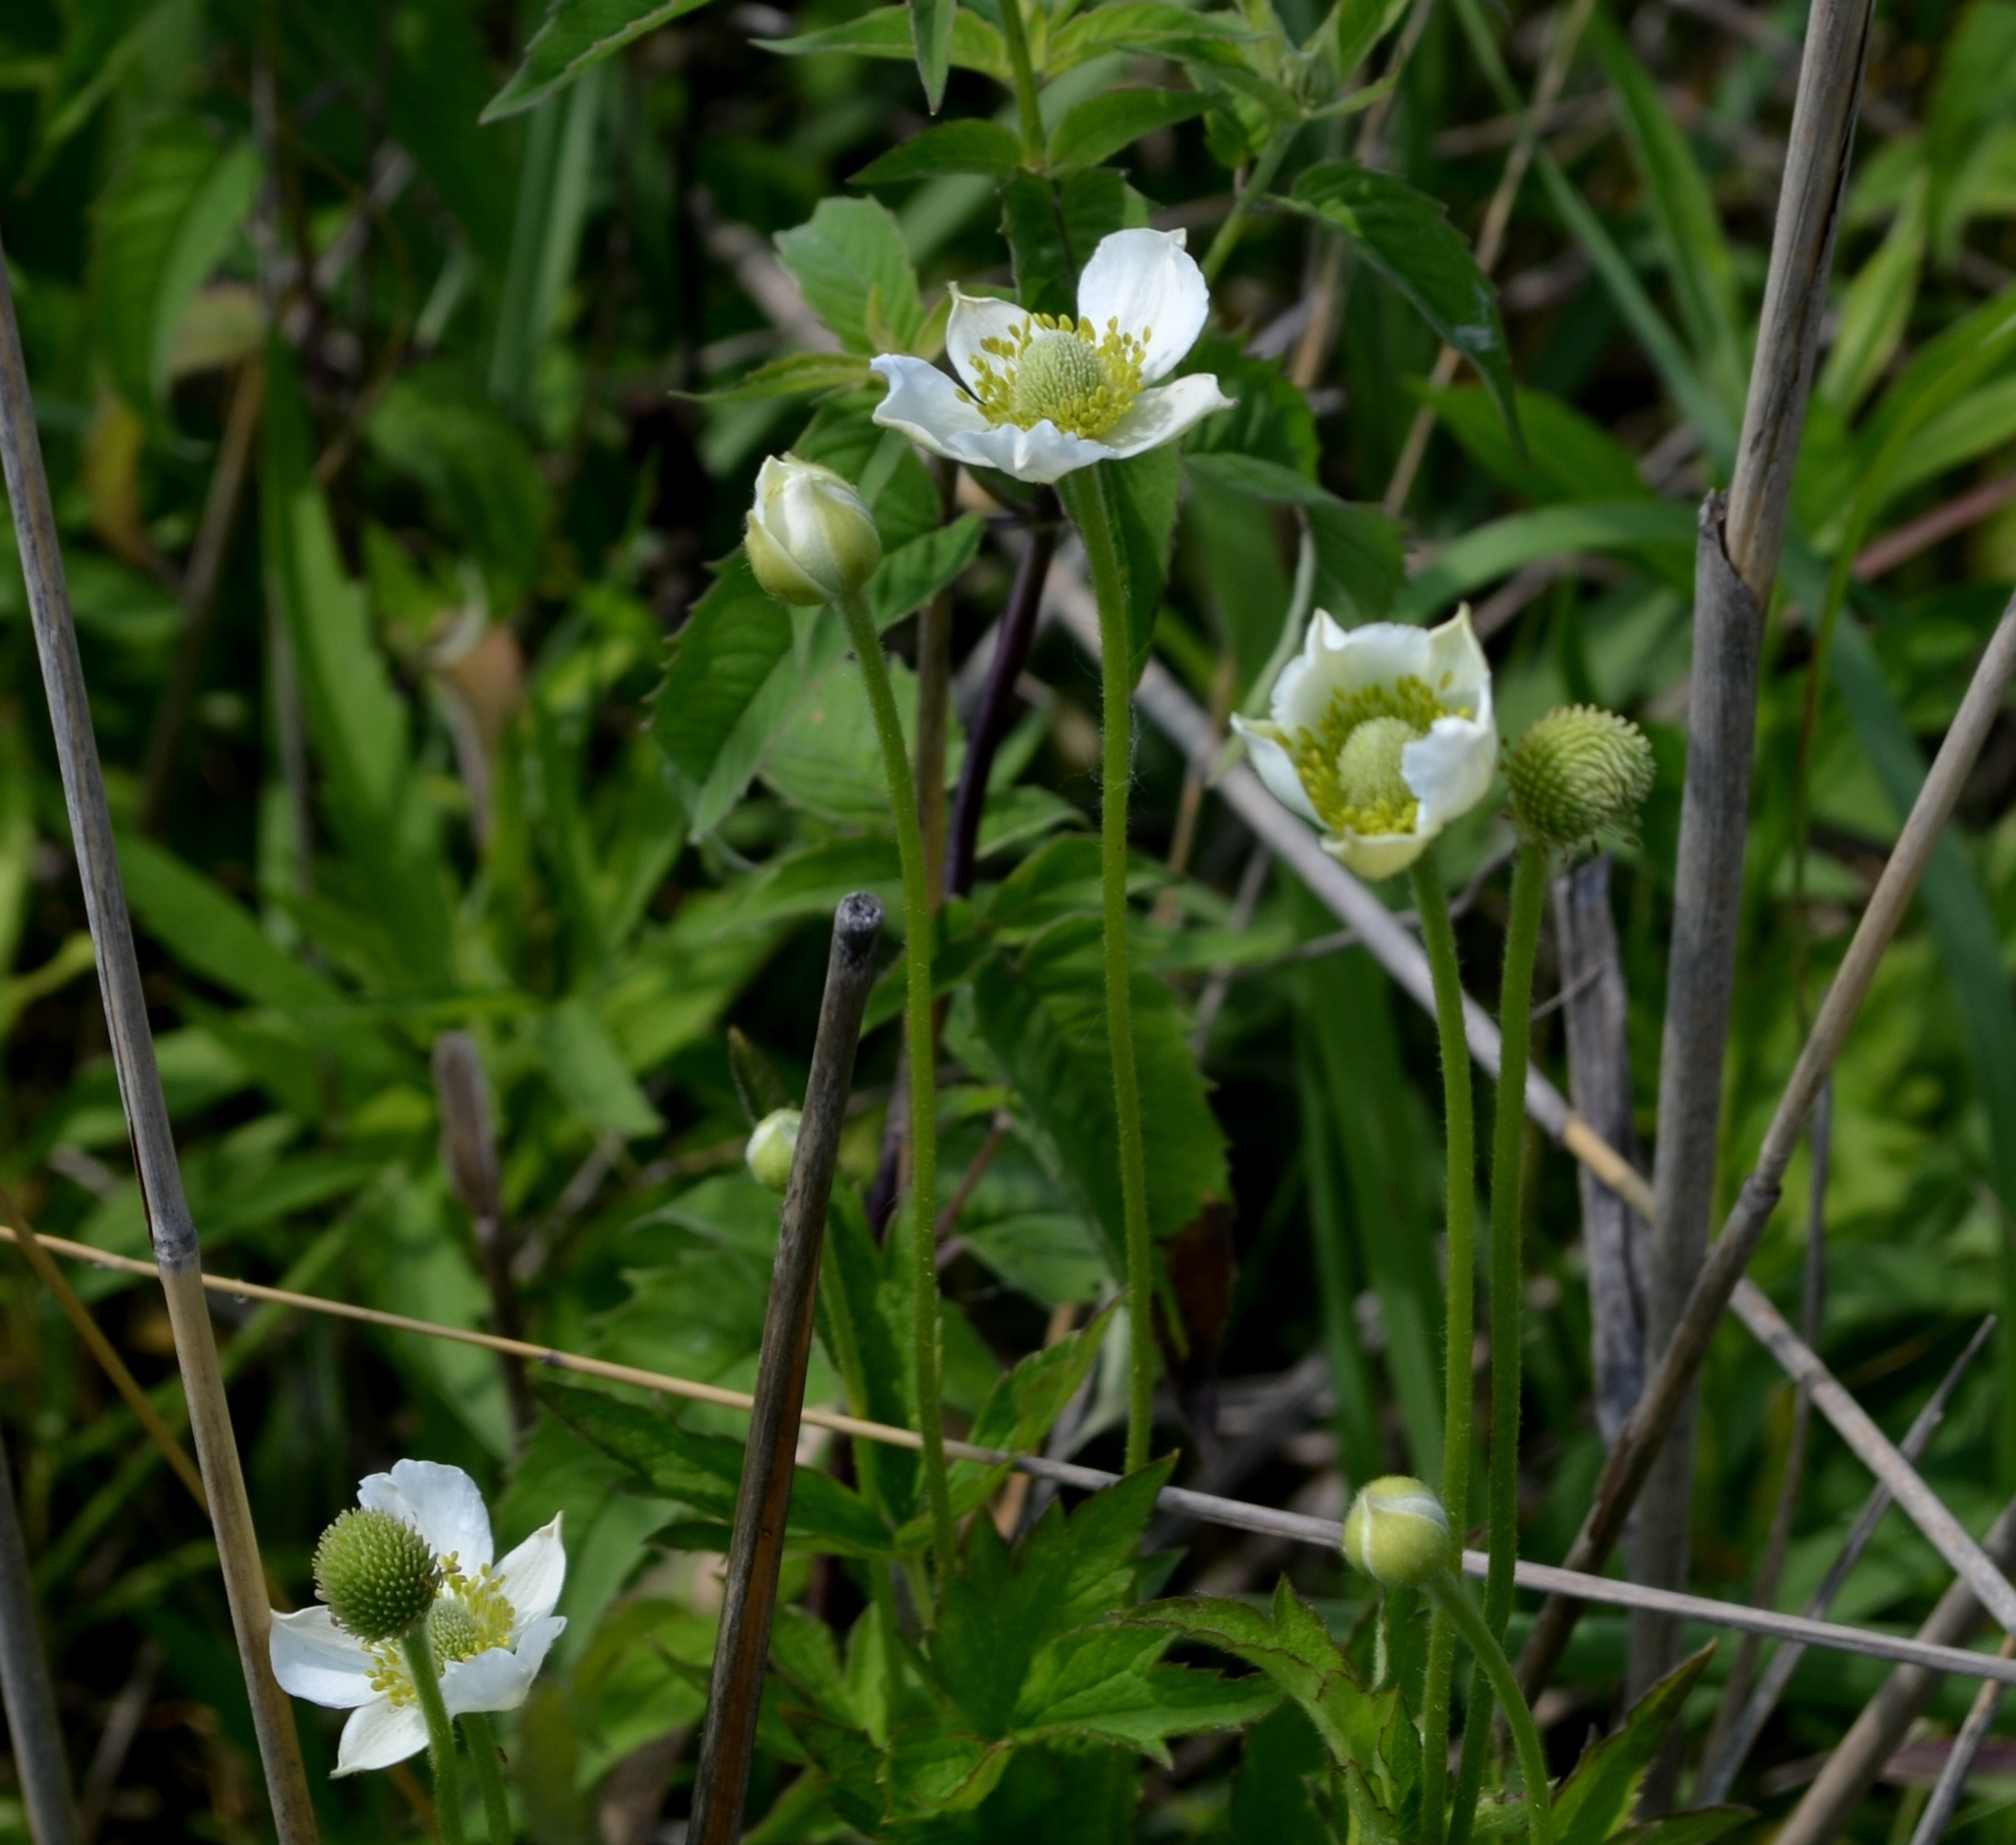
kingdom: Plantae
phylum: Tracheophyta
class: Magnoliopsida
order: Ranunculales
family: Ranunculaceae
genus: Anemone
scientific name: Anemone virginiana
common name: Tall anemone
